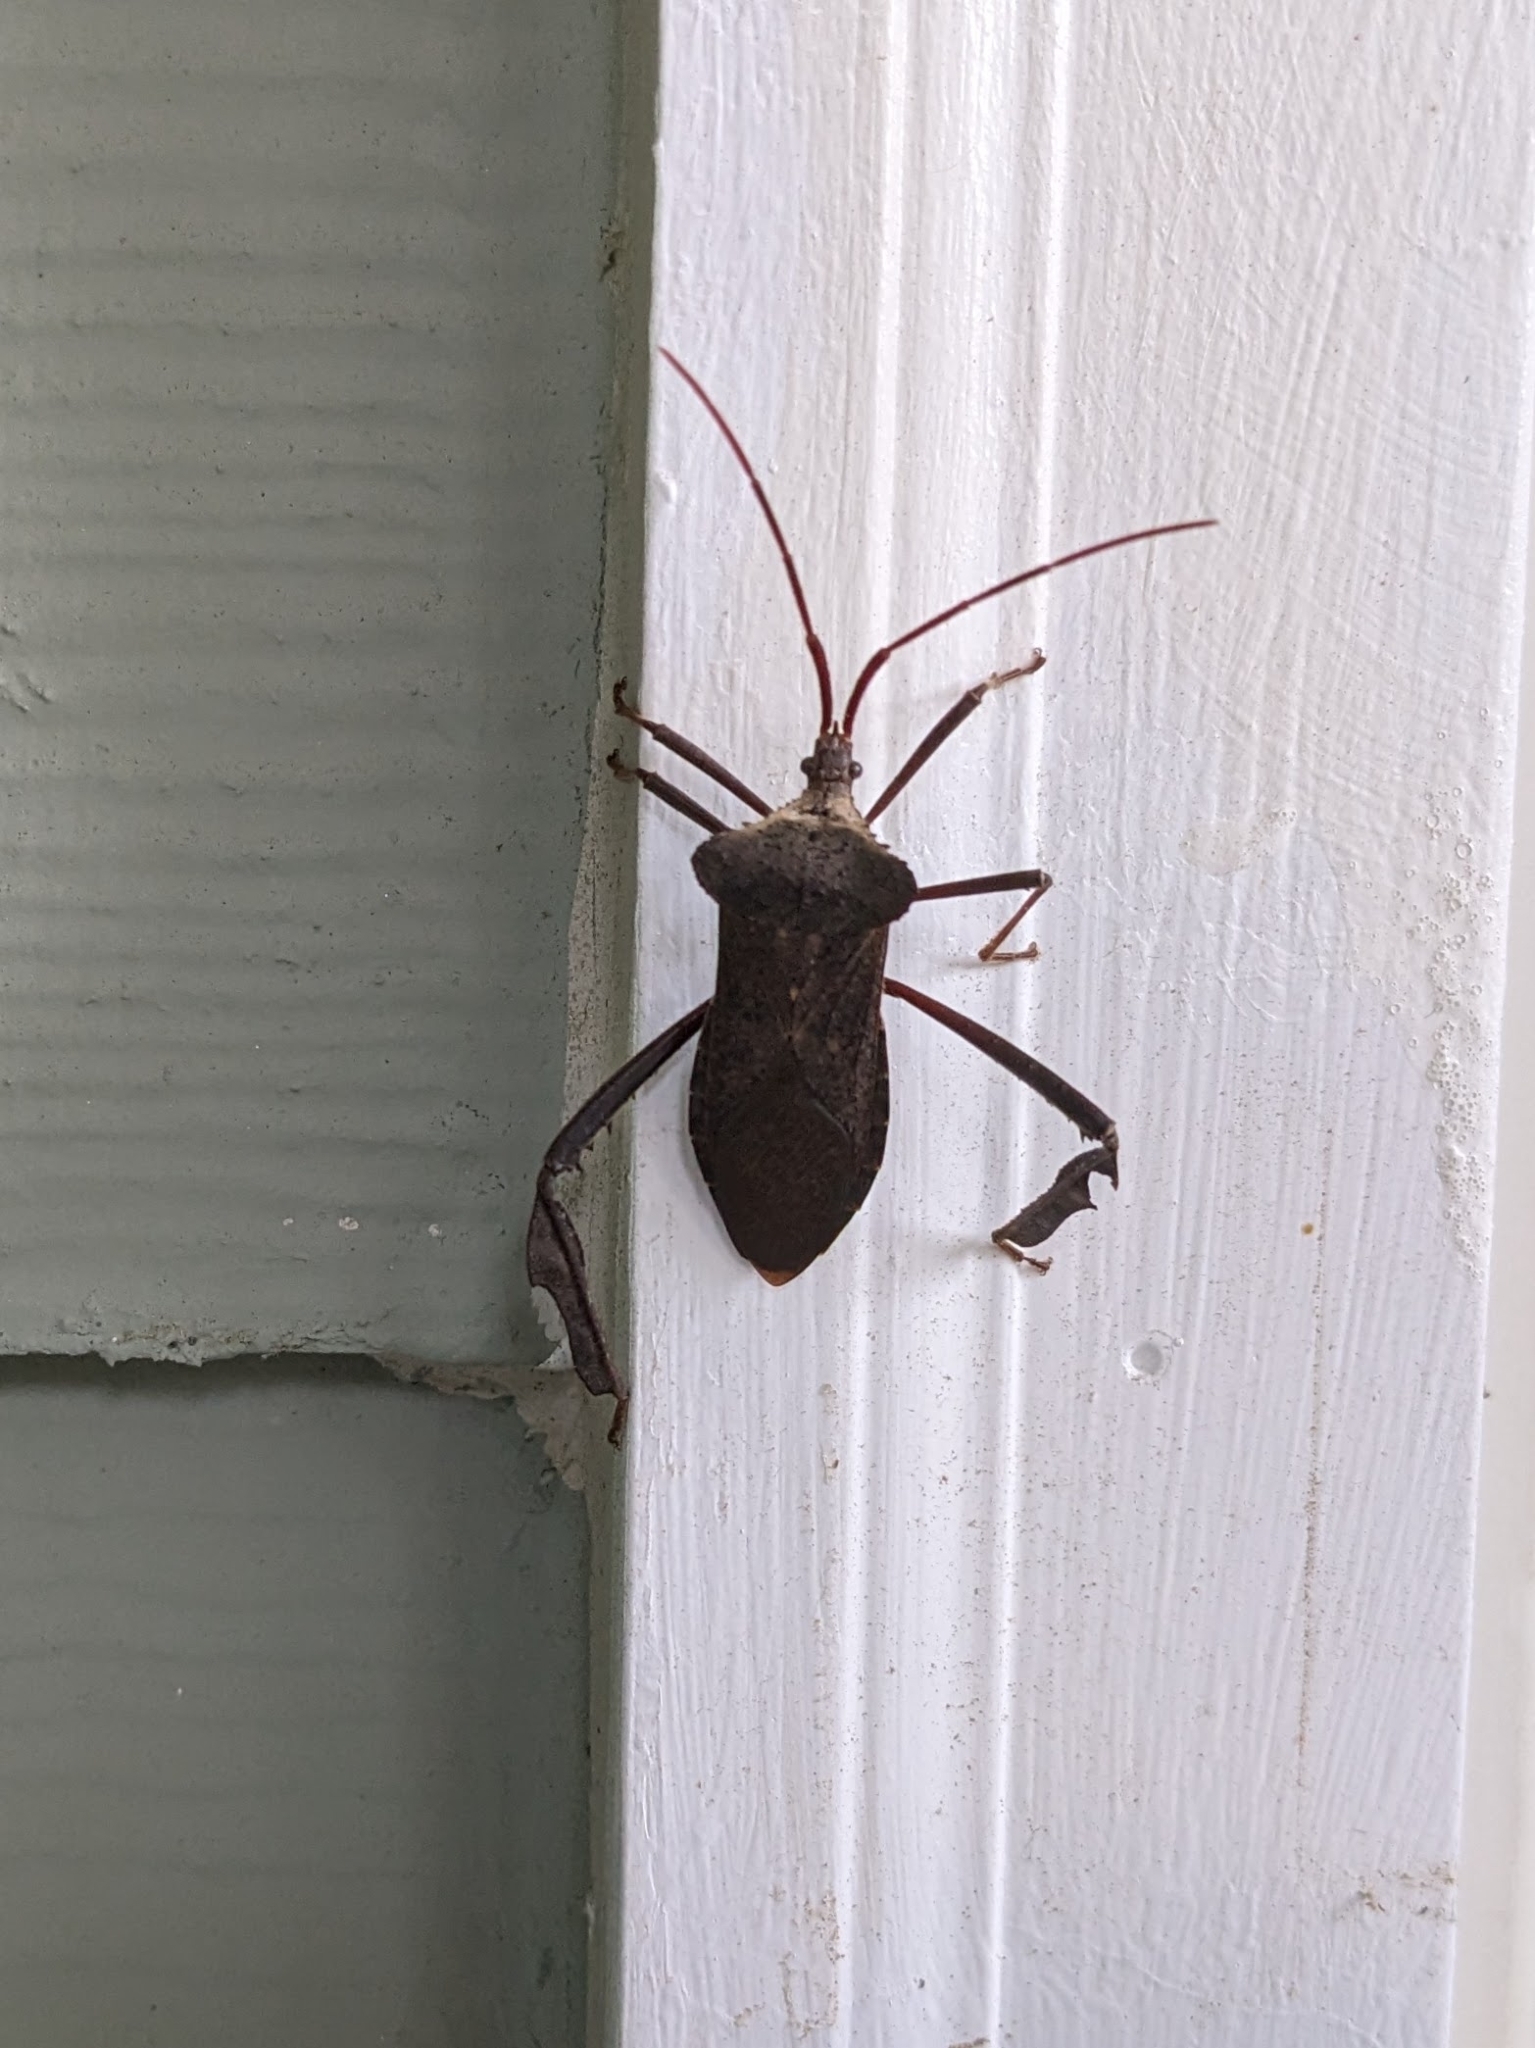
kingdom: Animalia
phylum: Arthropoda
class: Insecta
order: Hemiptera
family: Coreidae
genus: Acanthocephala
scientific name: Acanthocephala declivis
